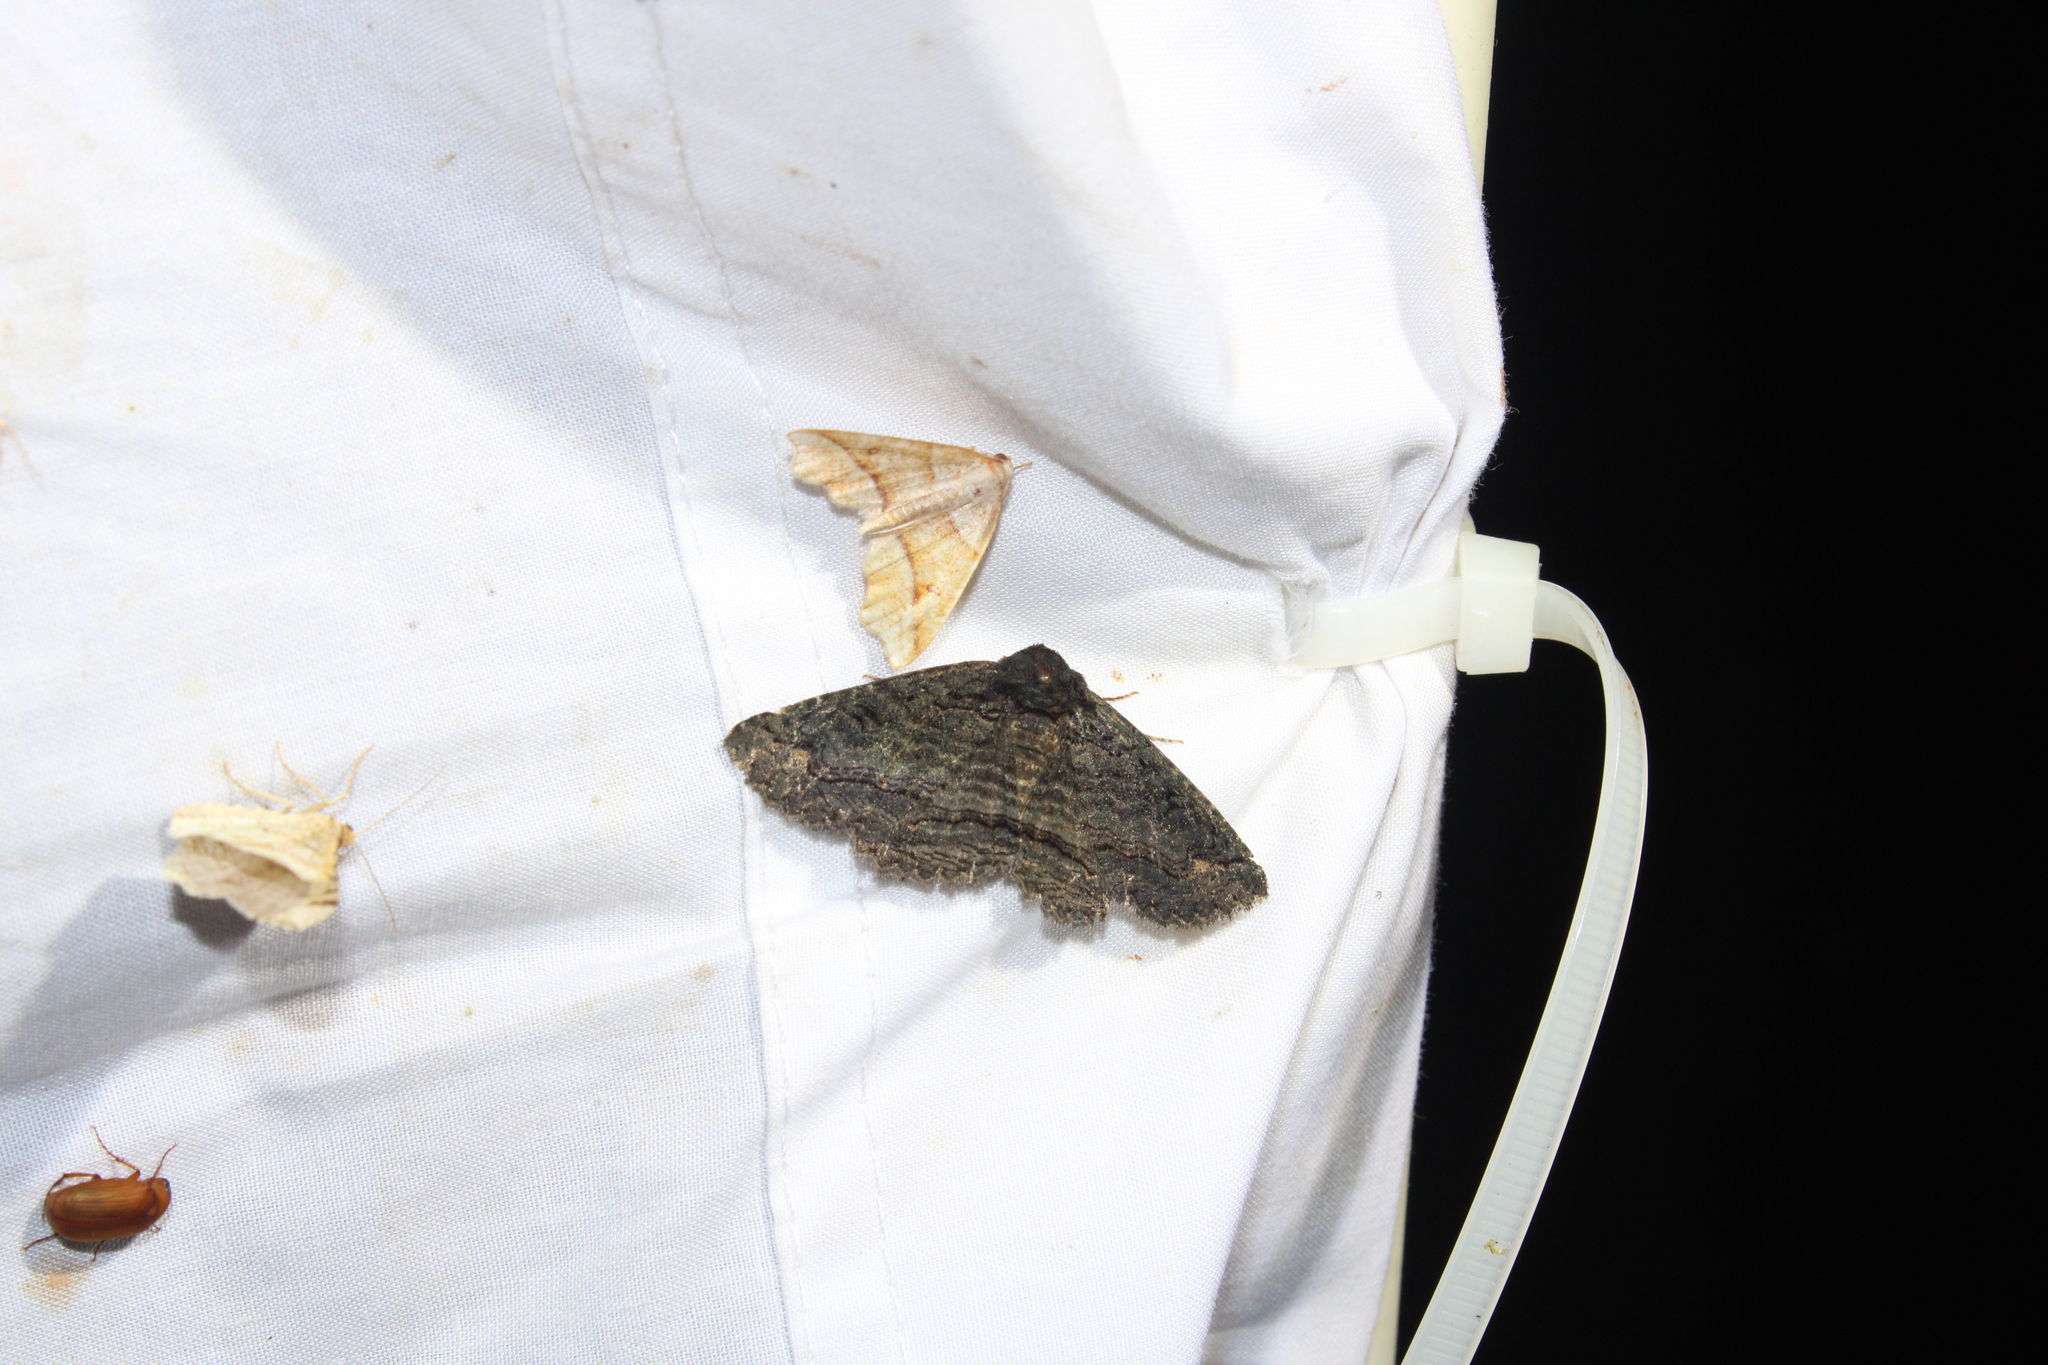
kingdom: Animalia
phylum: Arthropoda
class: Insecta
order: Lepidoptera
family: Erebidae
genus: Zale
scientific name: Zale undularis
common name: Black zale moth
